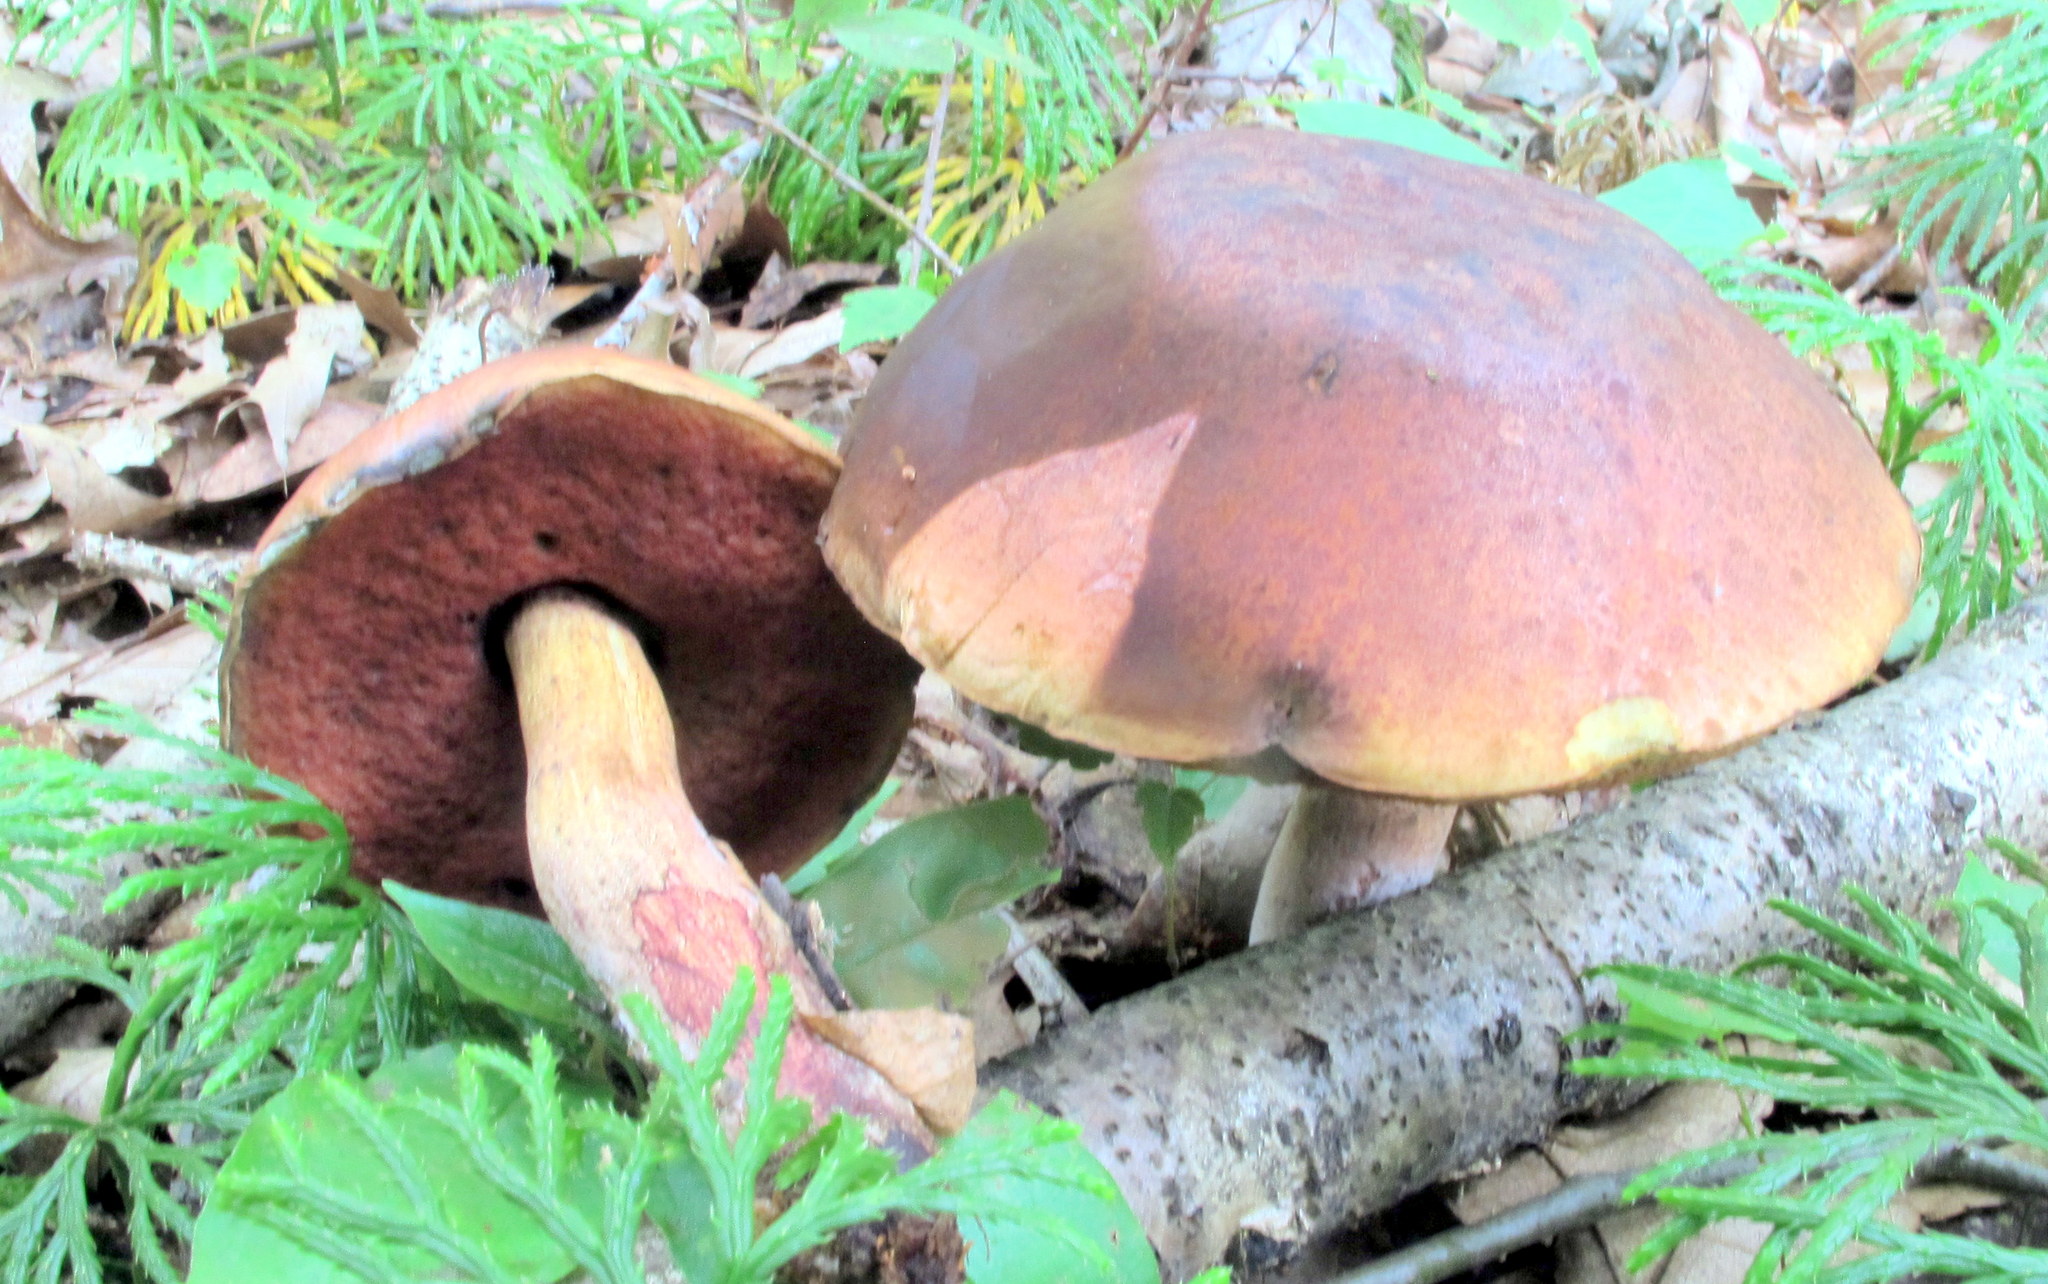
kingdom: Fungi
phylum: Basidiomycota
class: Agaricomycetes
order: Boletales
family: Boletaceae
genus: Boletus
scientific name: Boletus subvelutipes
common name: Red-mouth bolete
